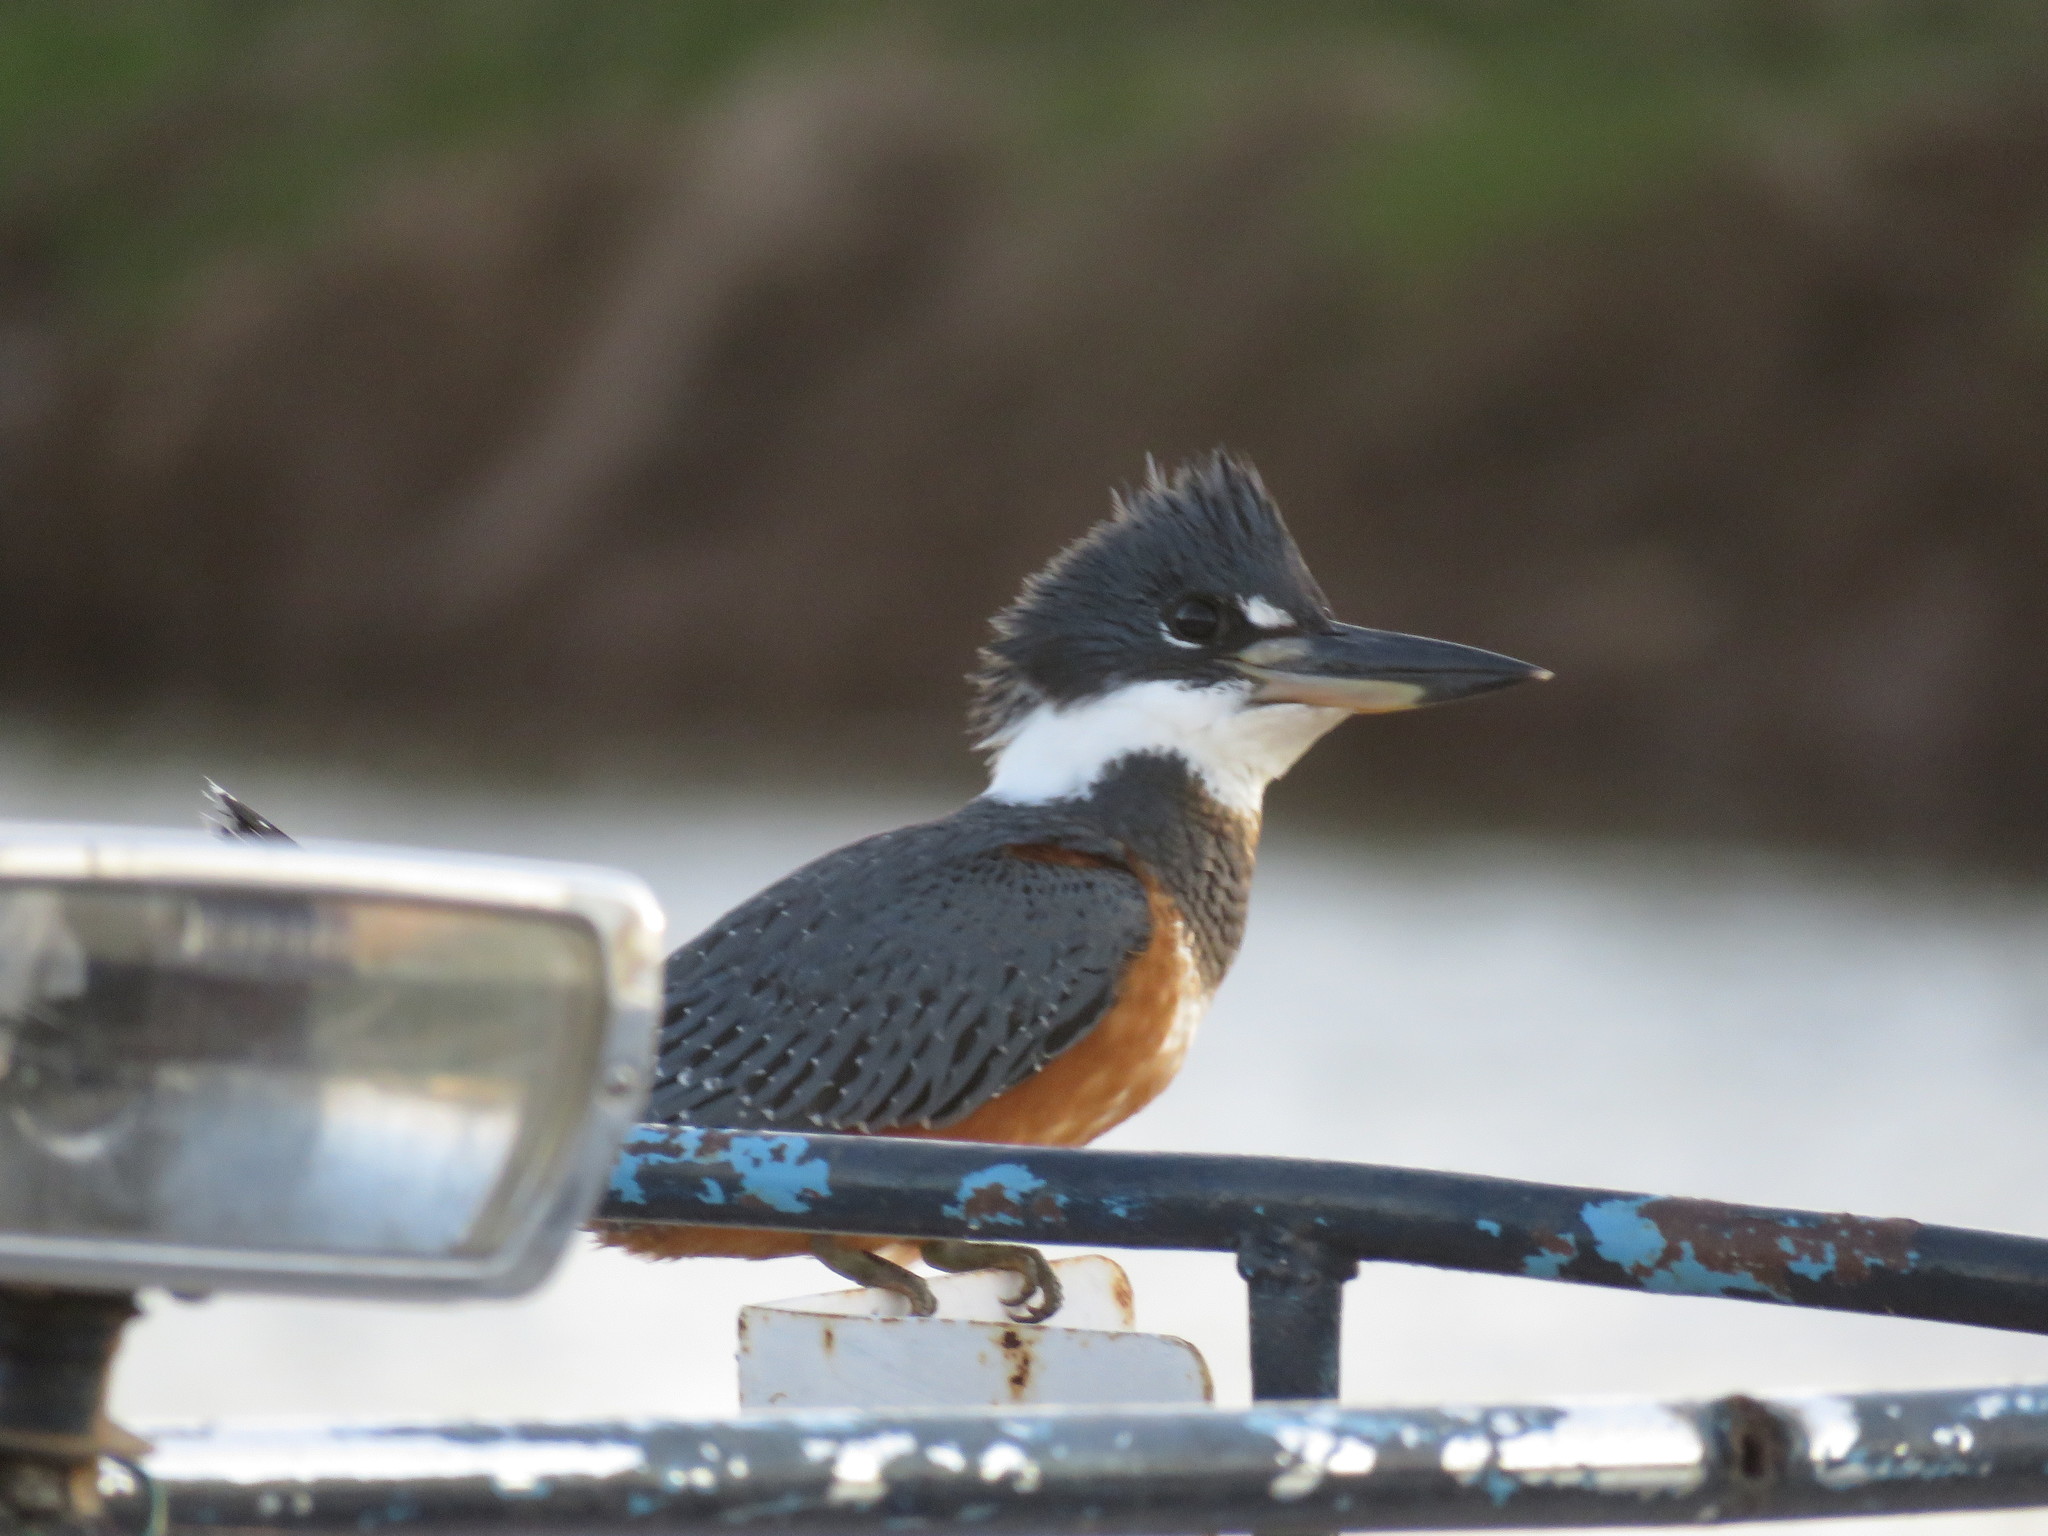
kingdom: Animalia
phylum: Chordata
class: Aves
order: Coraciiformes
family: Alcedinidae
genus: Megaceryle
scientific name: Megaceryle torquata
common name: Ringed kingfisher
